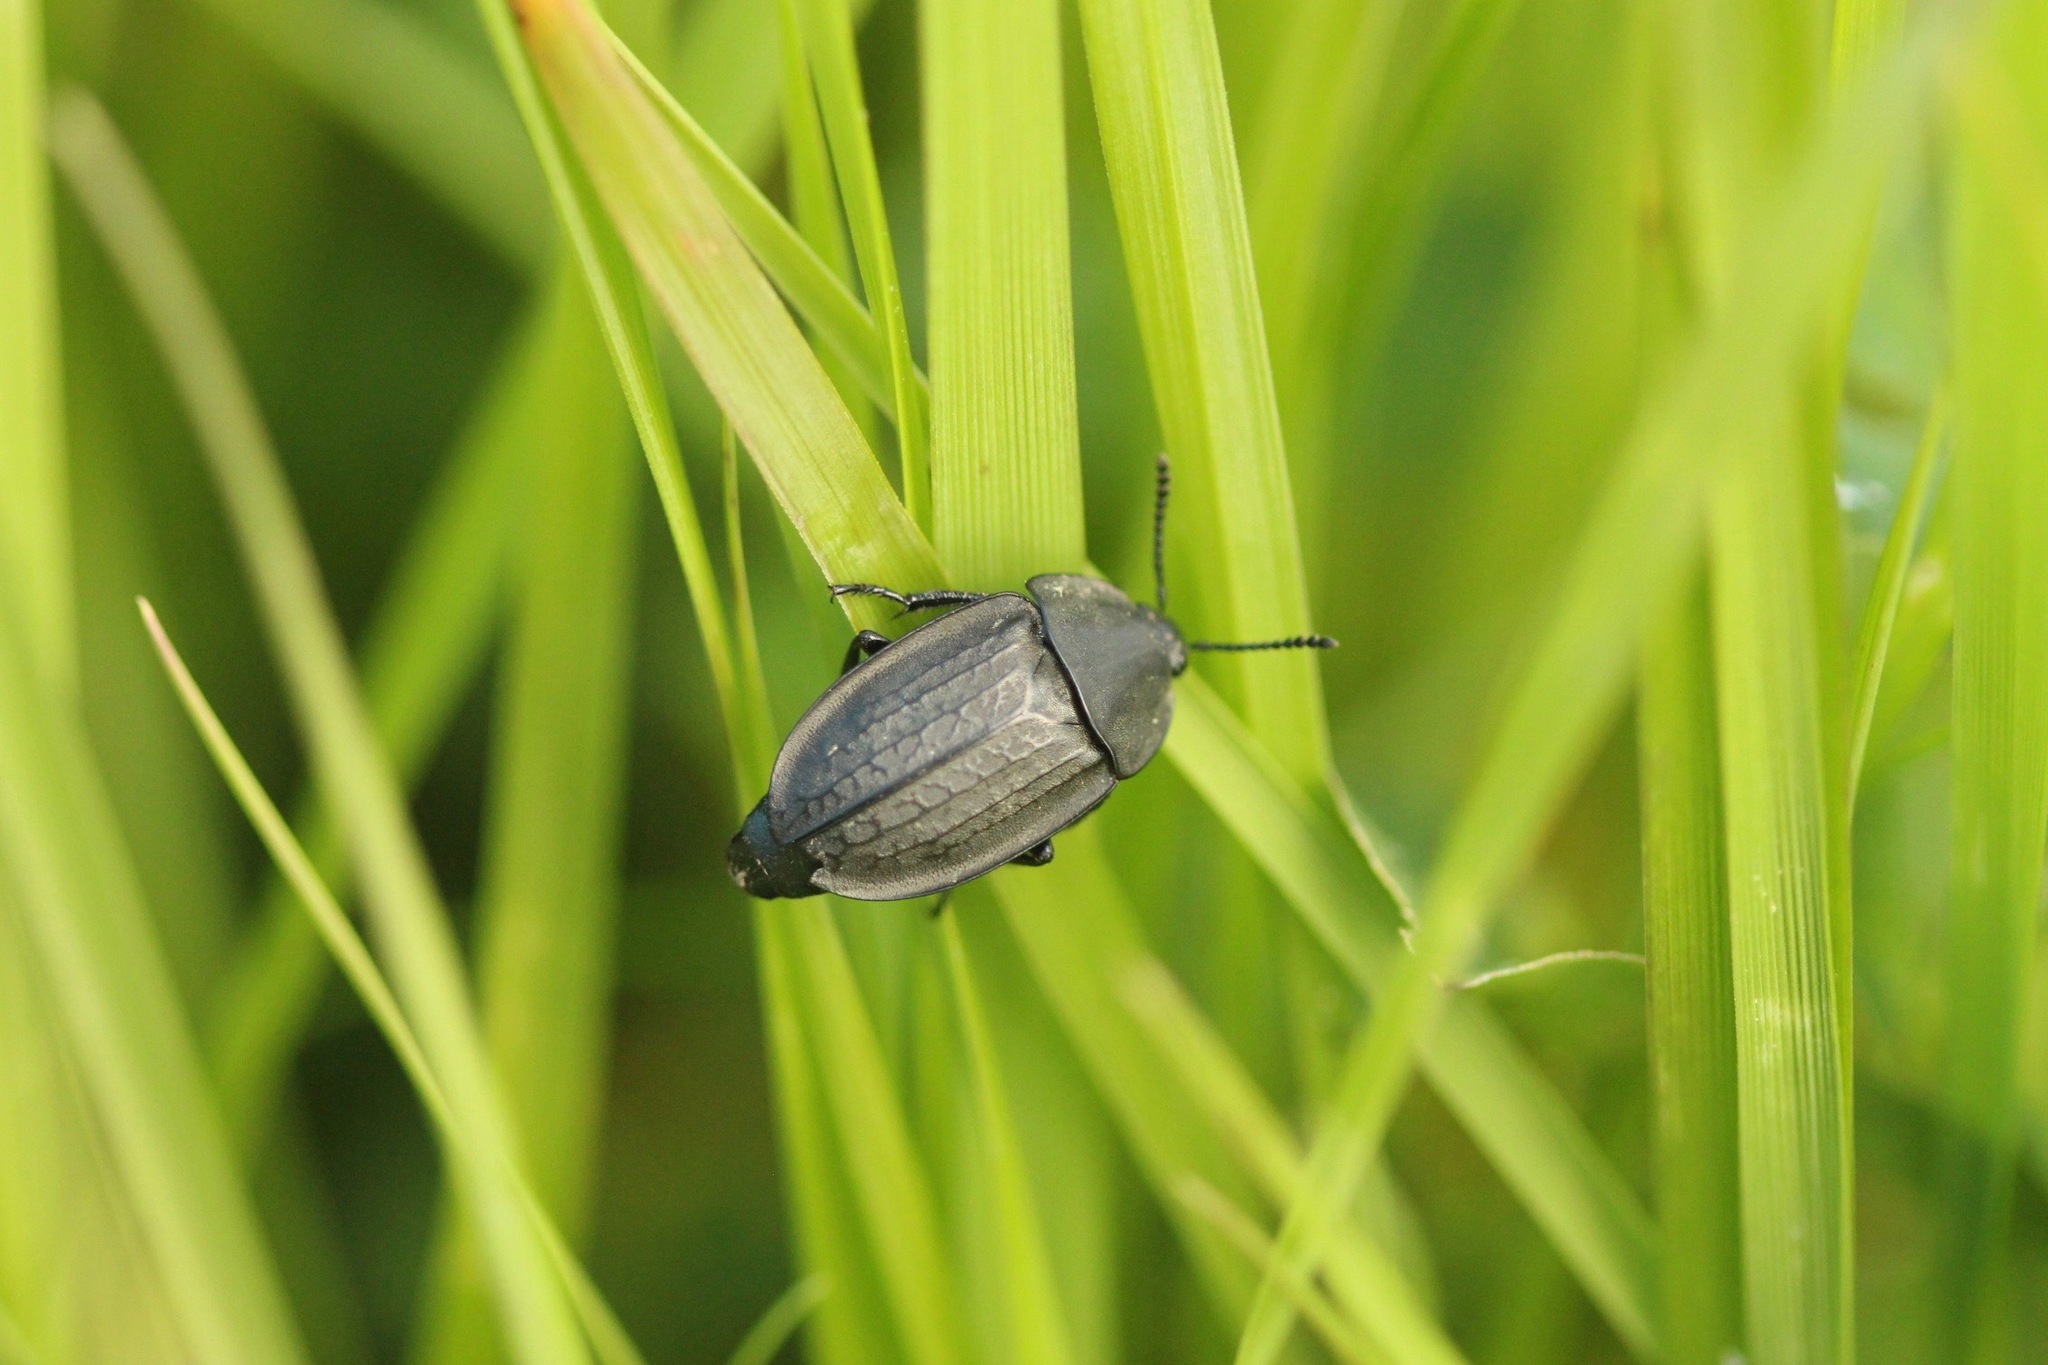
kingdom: Animalia
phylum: Arthropoda
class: Insecta
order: Coleoptera
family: Staphylinidae
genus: Heterosilpha
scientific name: Heterosilpha ramosa
